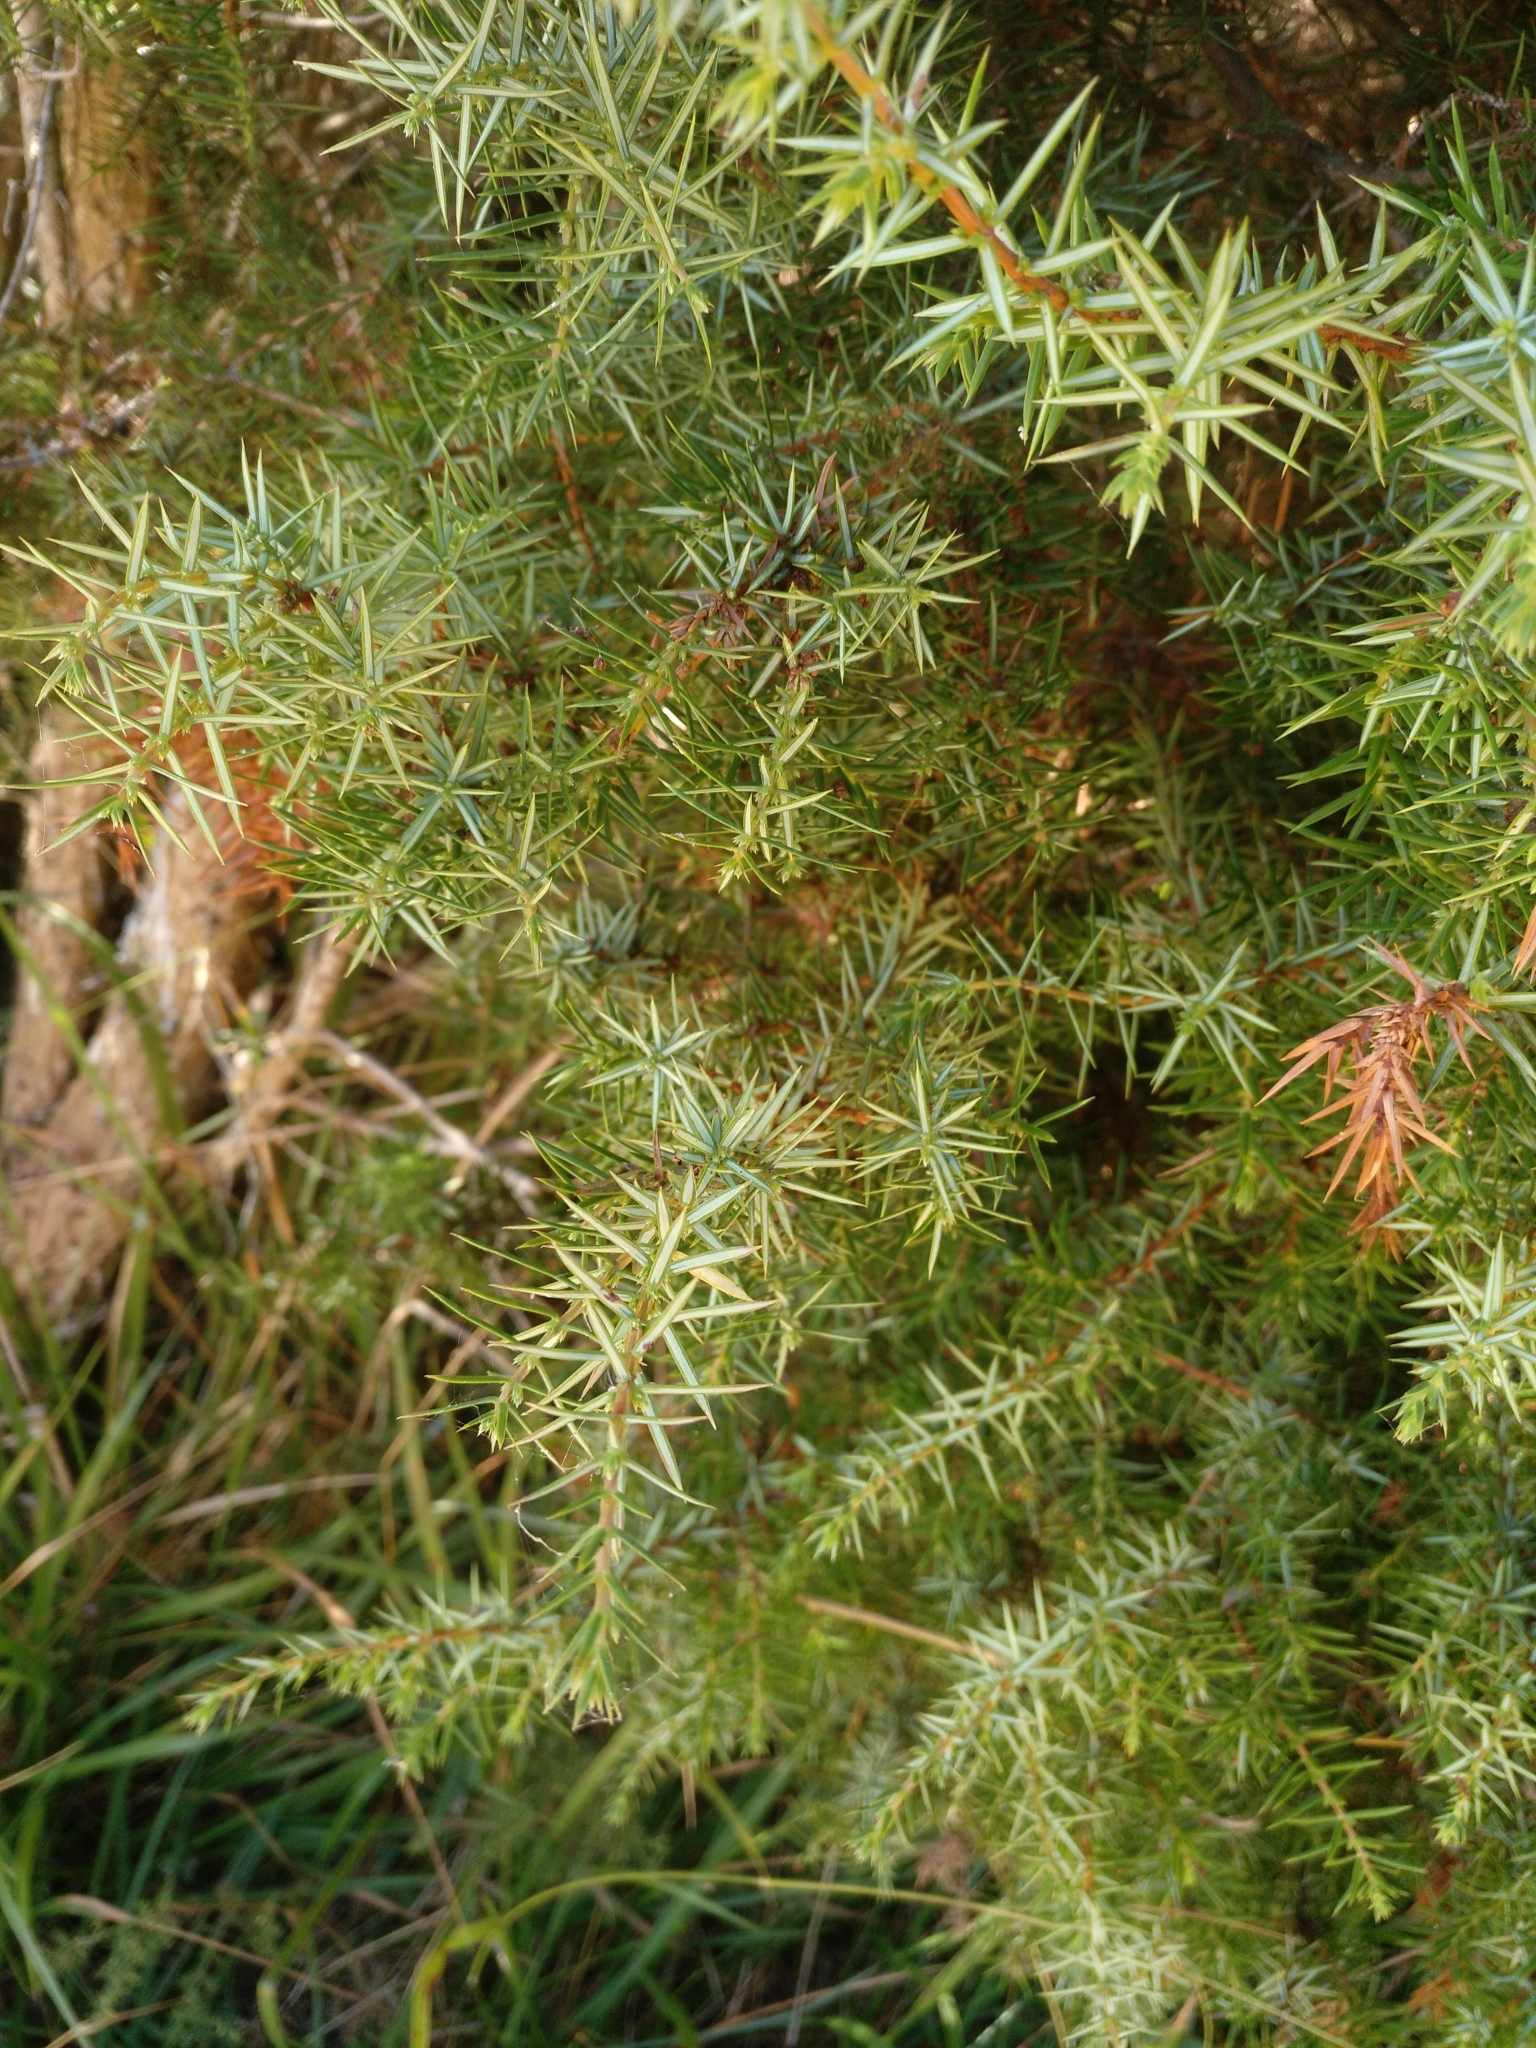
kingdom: Plantae
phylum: Tracheophyta
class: Pinopsida
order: Pinales
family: Cupressaceae
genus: Juniperus
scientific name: Juniperus communis
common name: Common juniper
